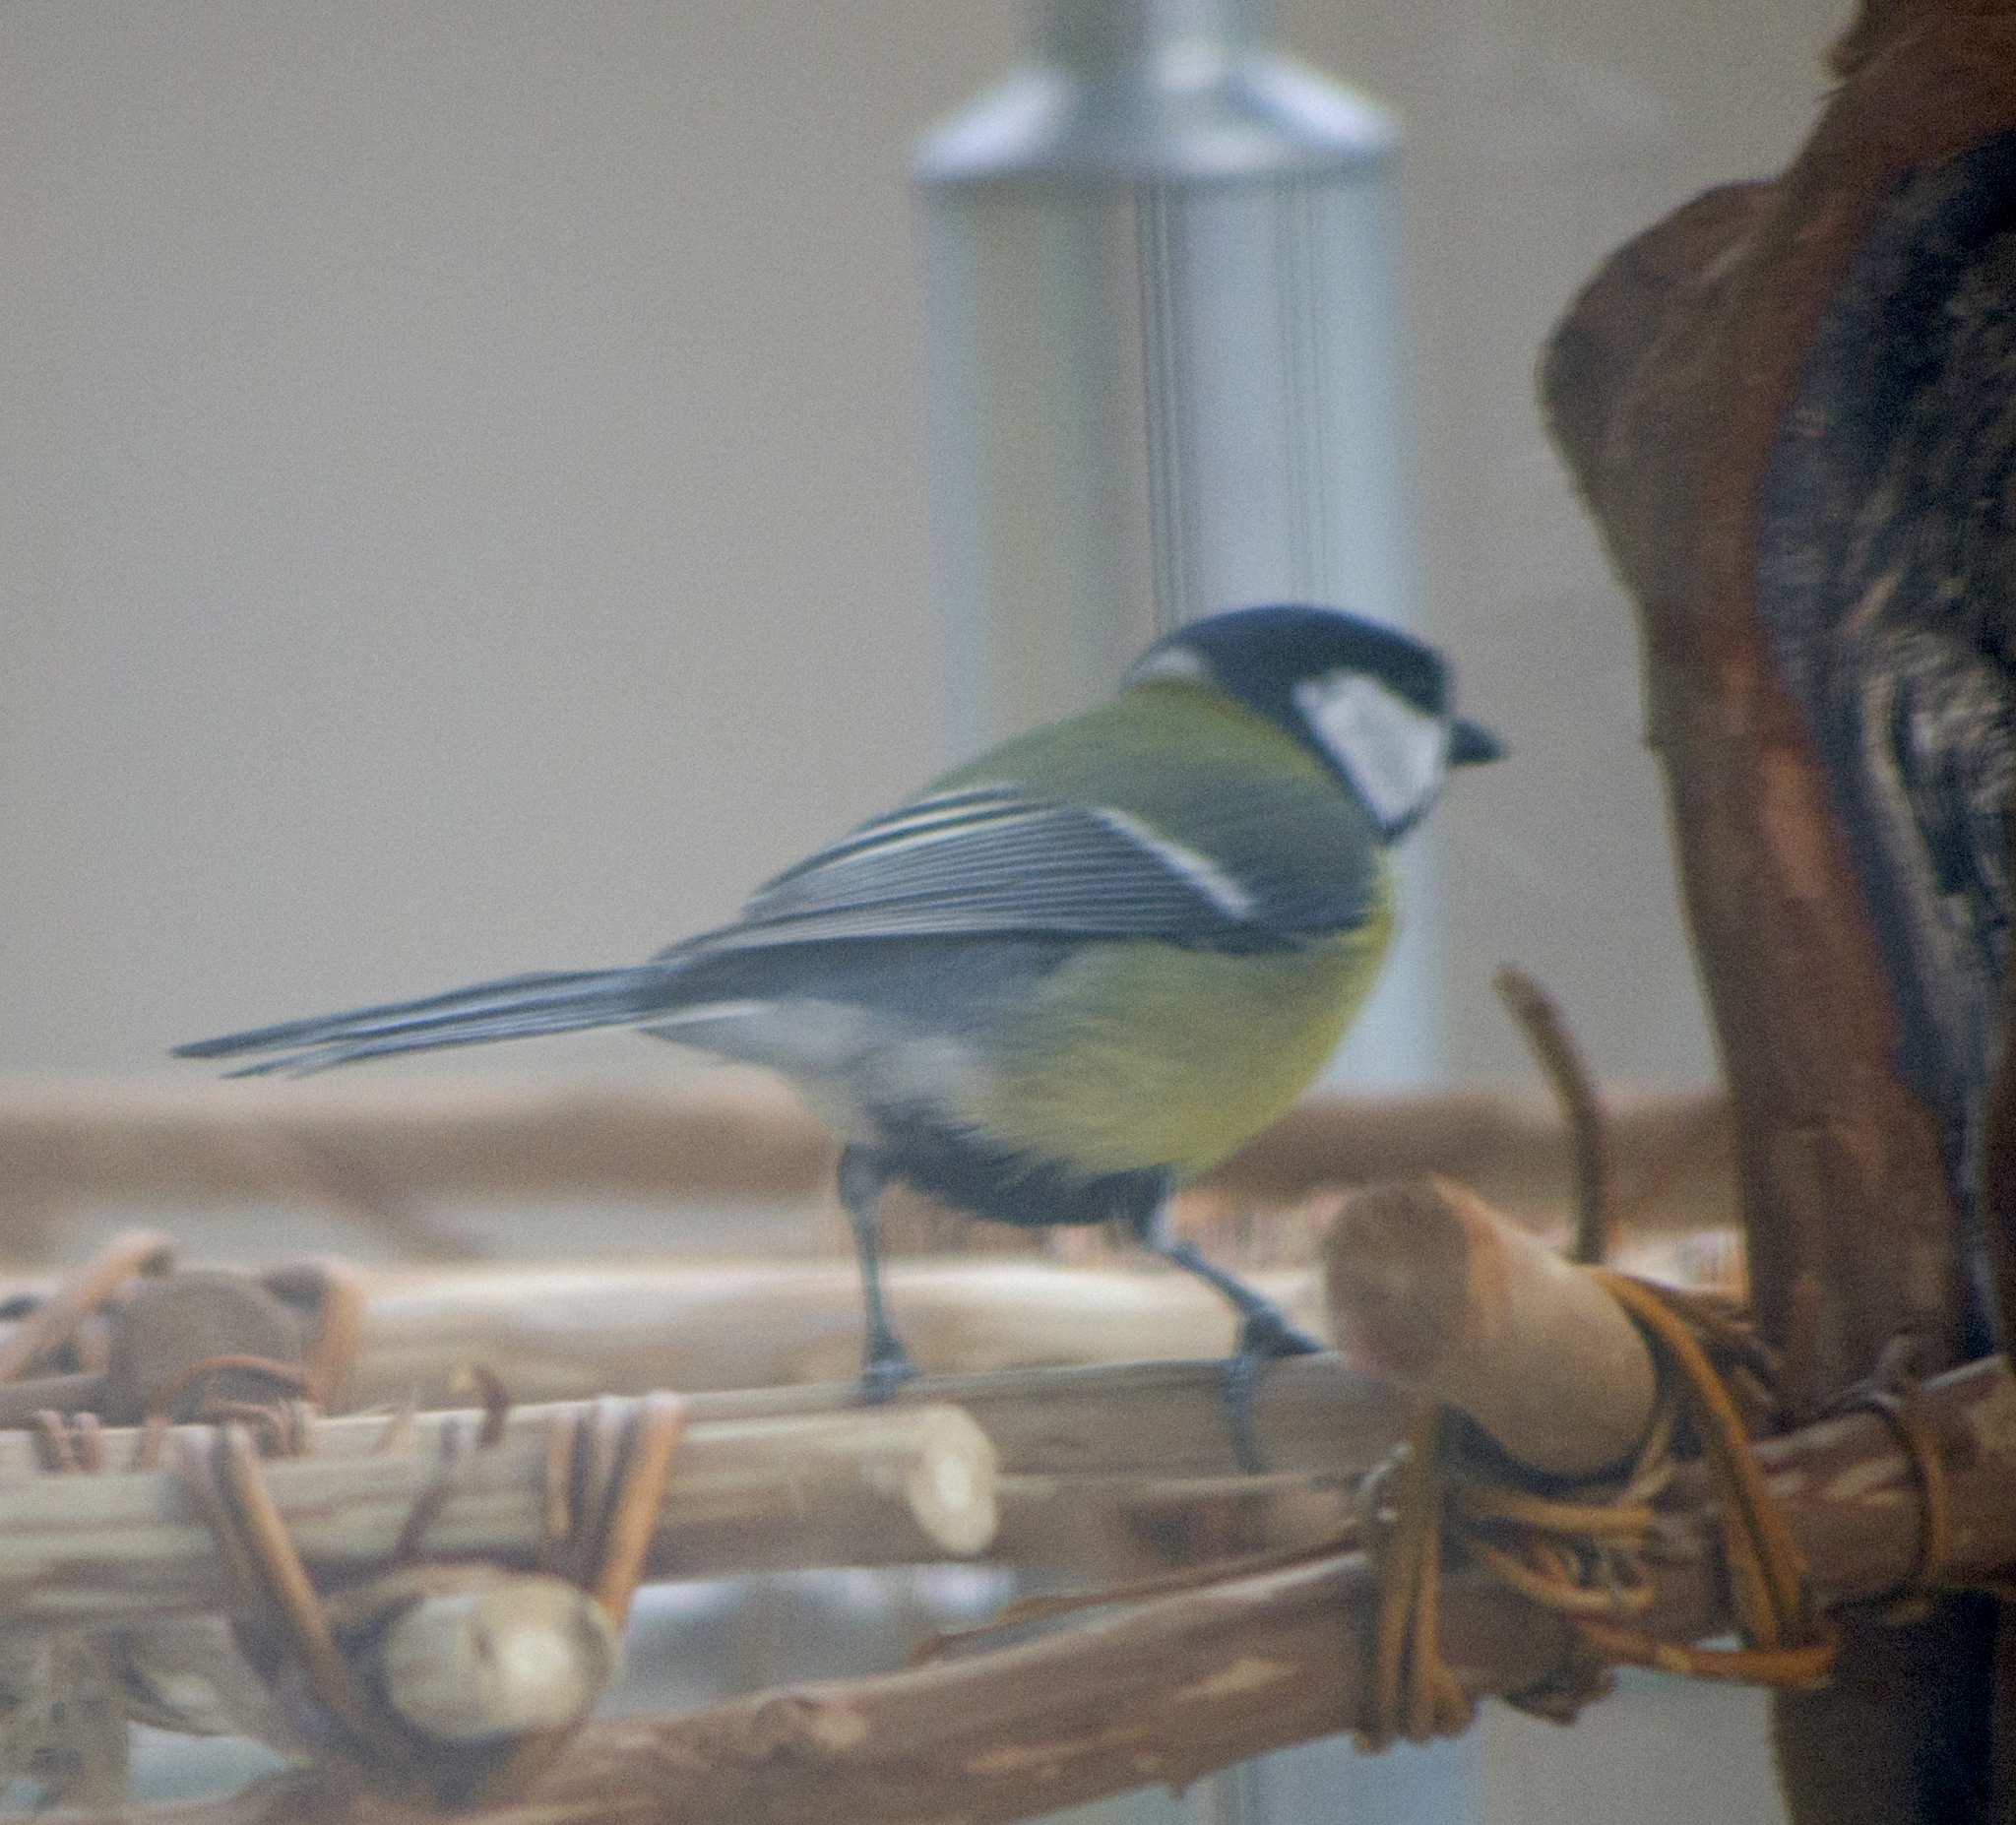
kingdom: Animalia
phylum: Chordata
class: Aves
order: Passeriformes
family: Paridae
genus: Parus
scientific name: Parus major
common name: Great tit
